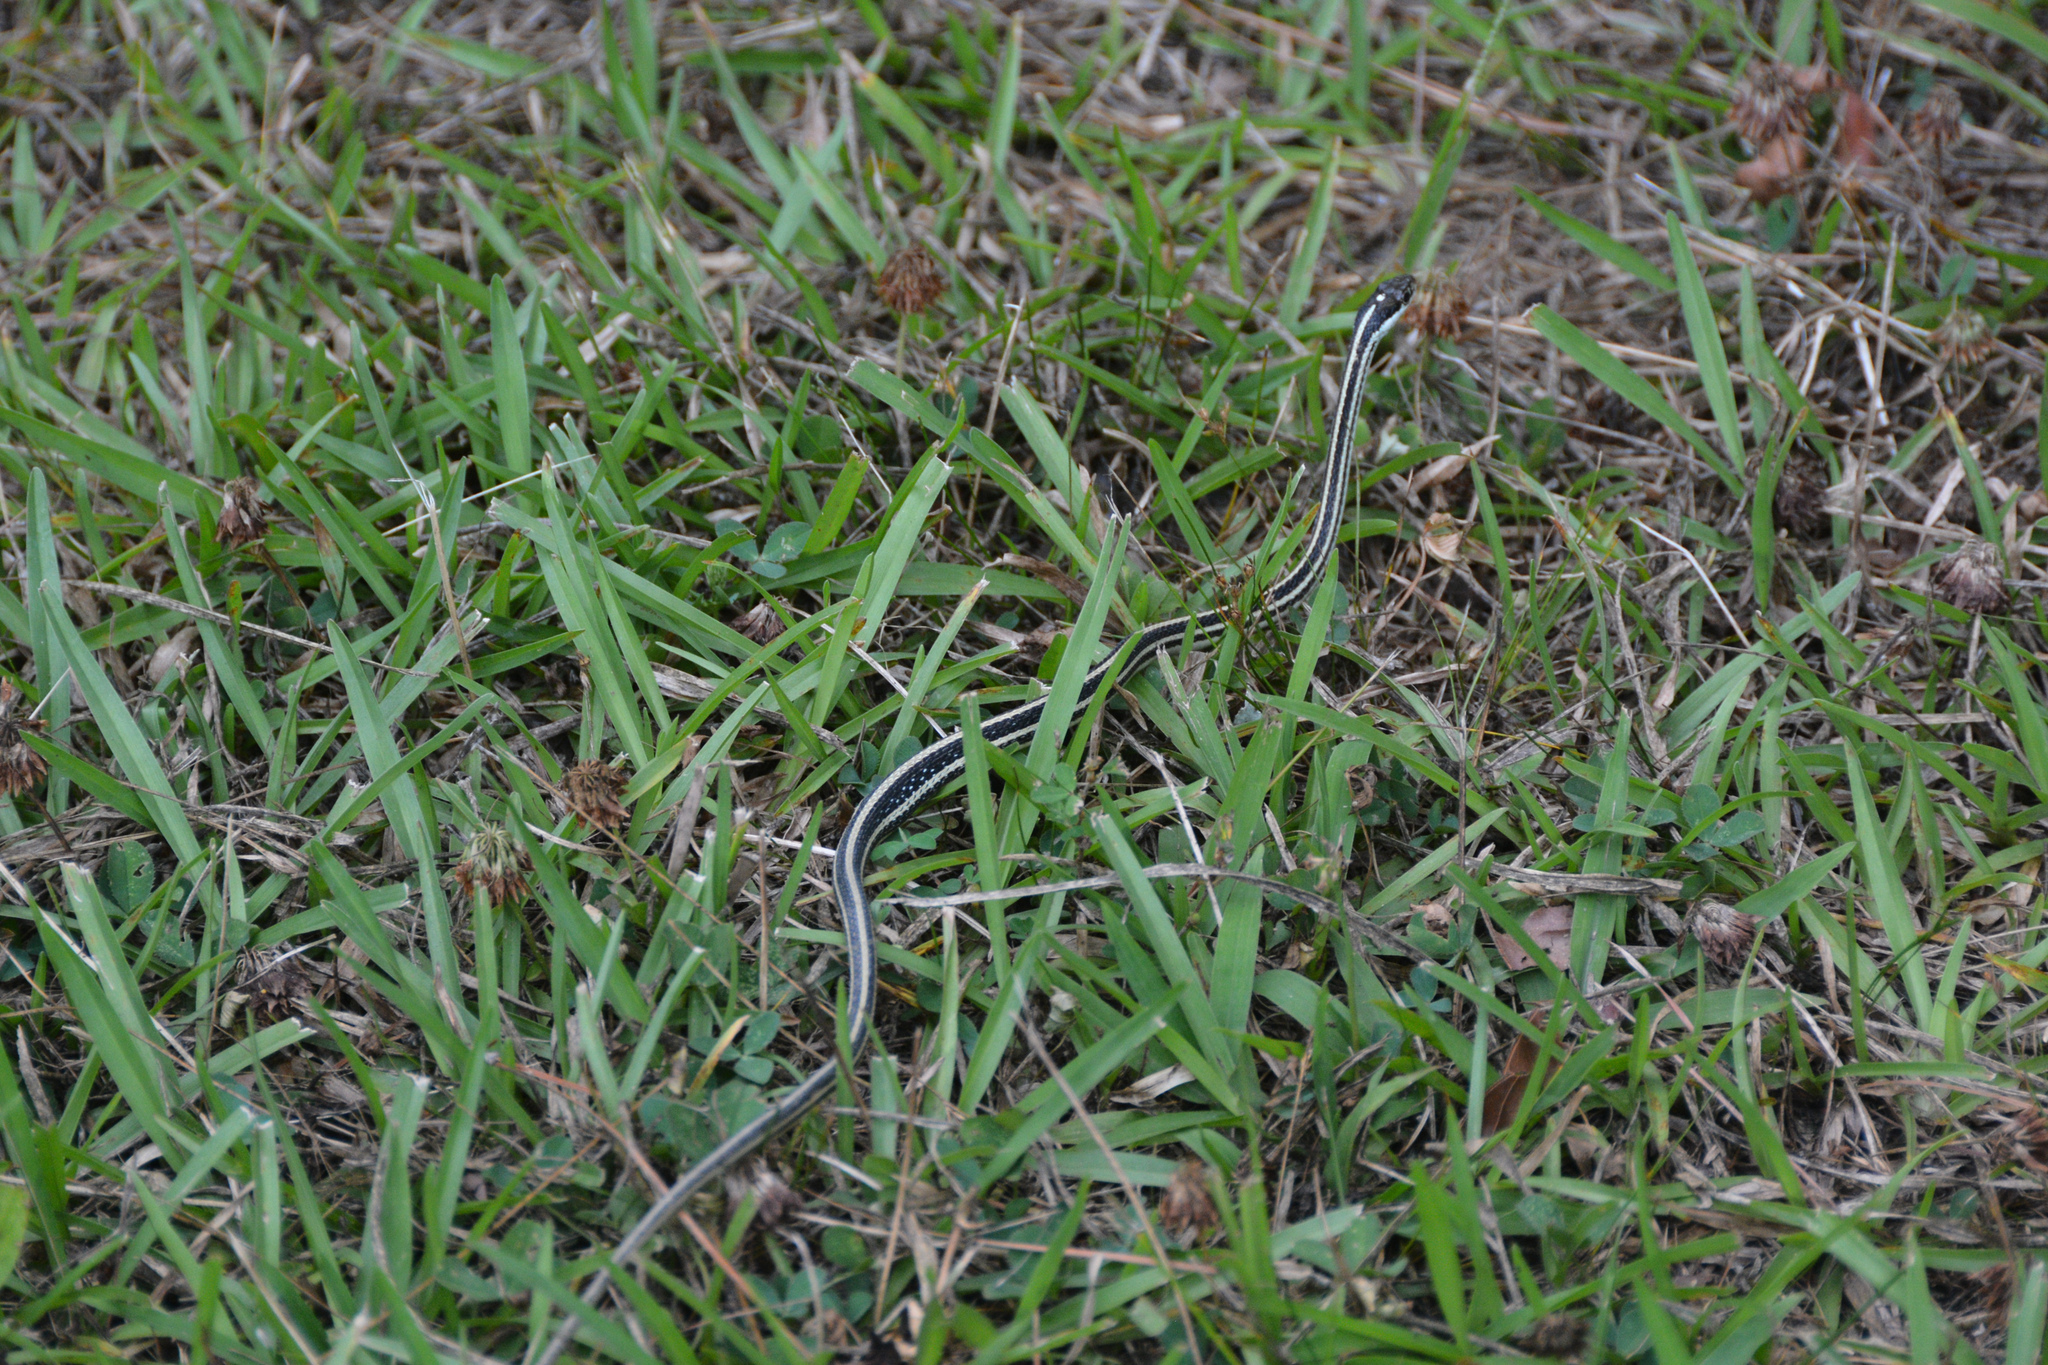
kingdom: Animalia
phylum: Chordata
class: Squamata
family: Colubridae
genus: Thamnophis
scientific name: Thamnophis proximus
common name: Western ribbon snake
